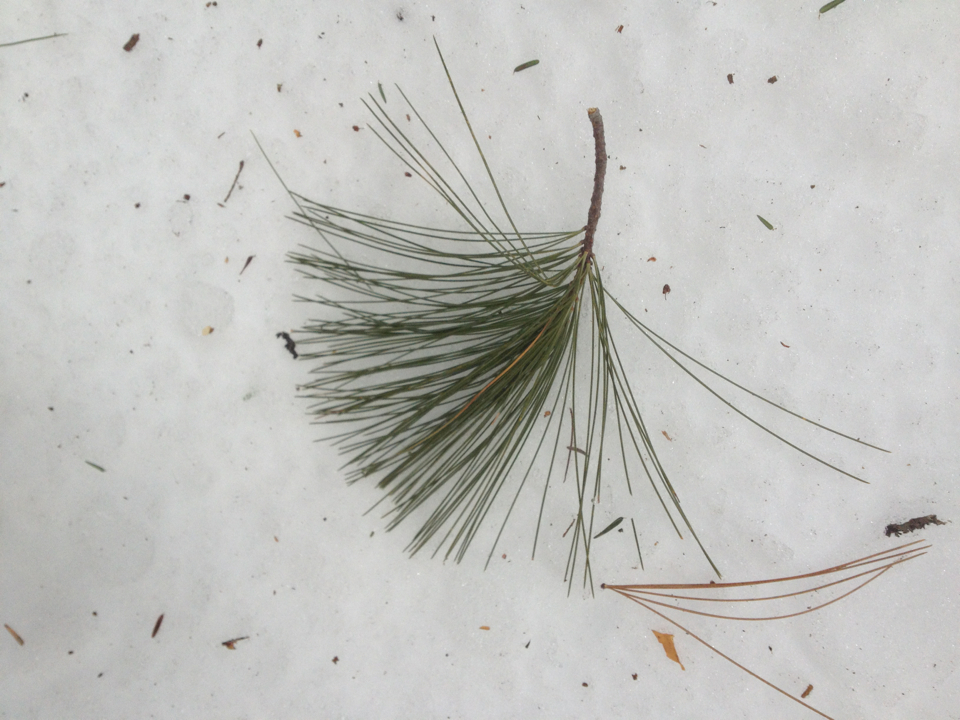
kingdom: Plantae
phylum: Tracheophyta
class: Pinopsida
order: Pinales
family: Pinaceae
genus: Pinus
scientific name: Pinus strobus
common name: Weymouth pine
